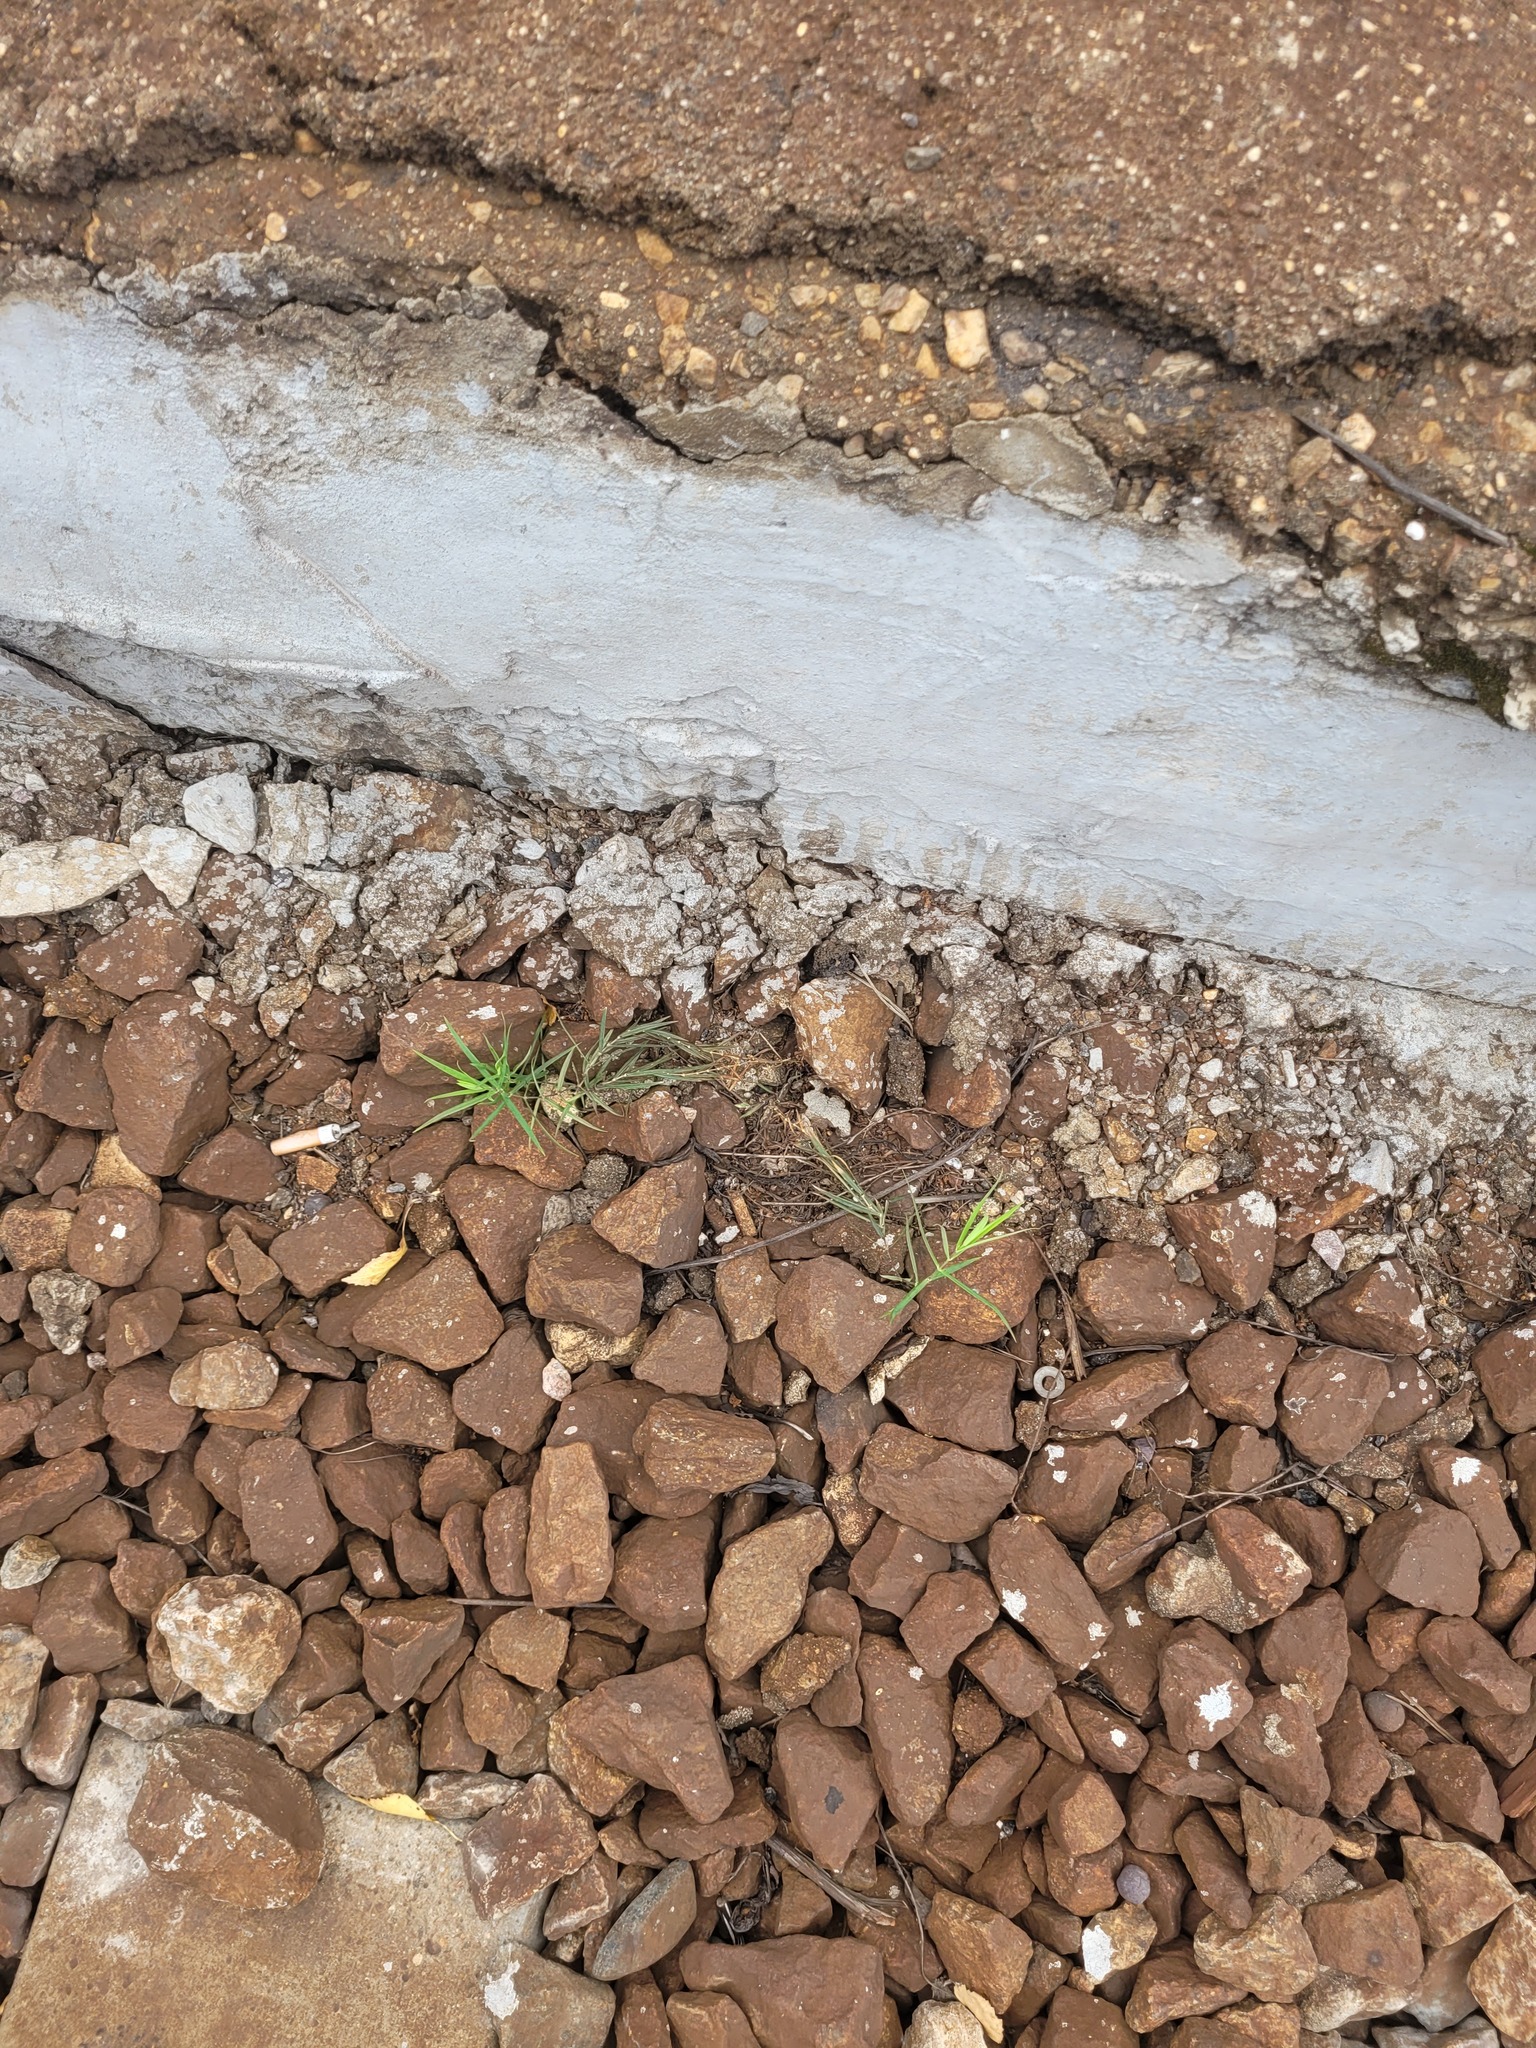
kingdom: Plantae
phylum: Tracheophyta
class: Magnoliopsida
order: Caryophyllales
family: Caryophyllaceae
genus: Rabelera
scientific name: Rabelera holostea
